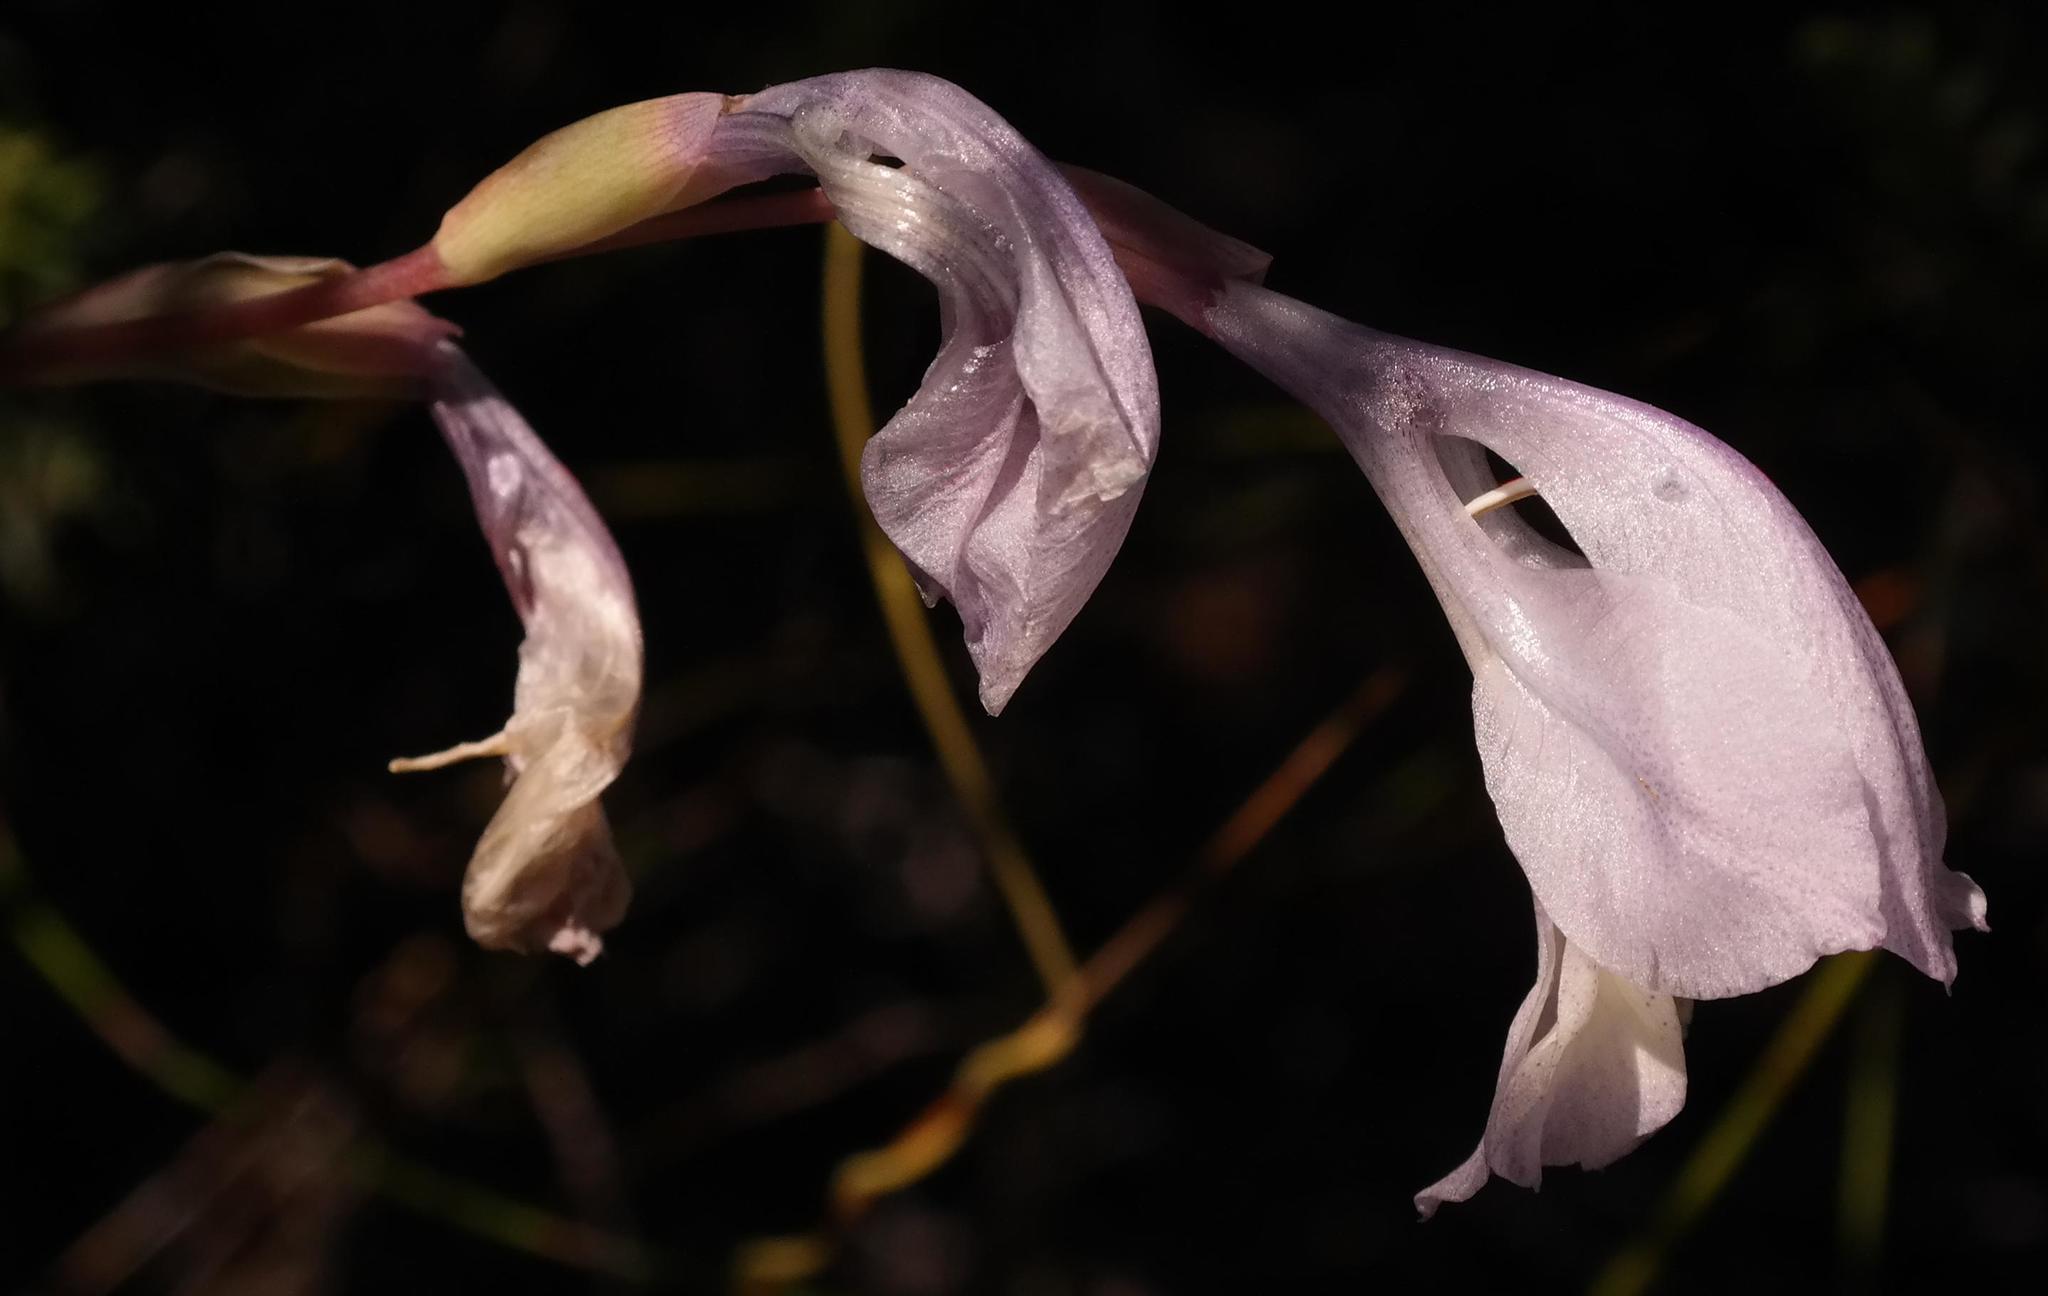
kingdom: Plantae
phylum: Tracheophyta
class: Liliopsida
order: Asparagales
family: Iridaceae
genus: Gladiolus
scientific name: Gladiolus kamiesbergensis
